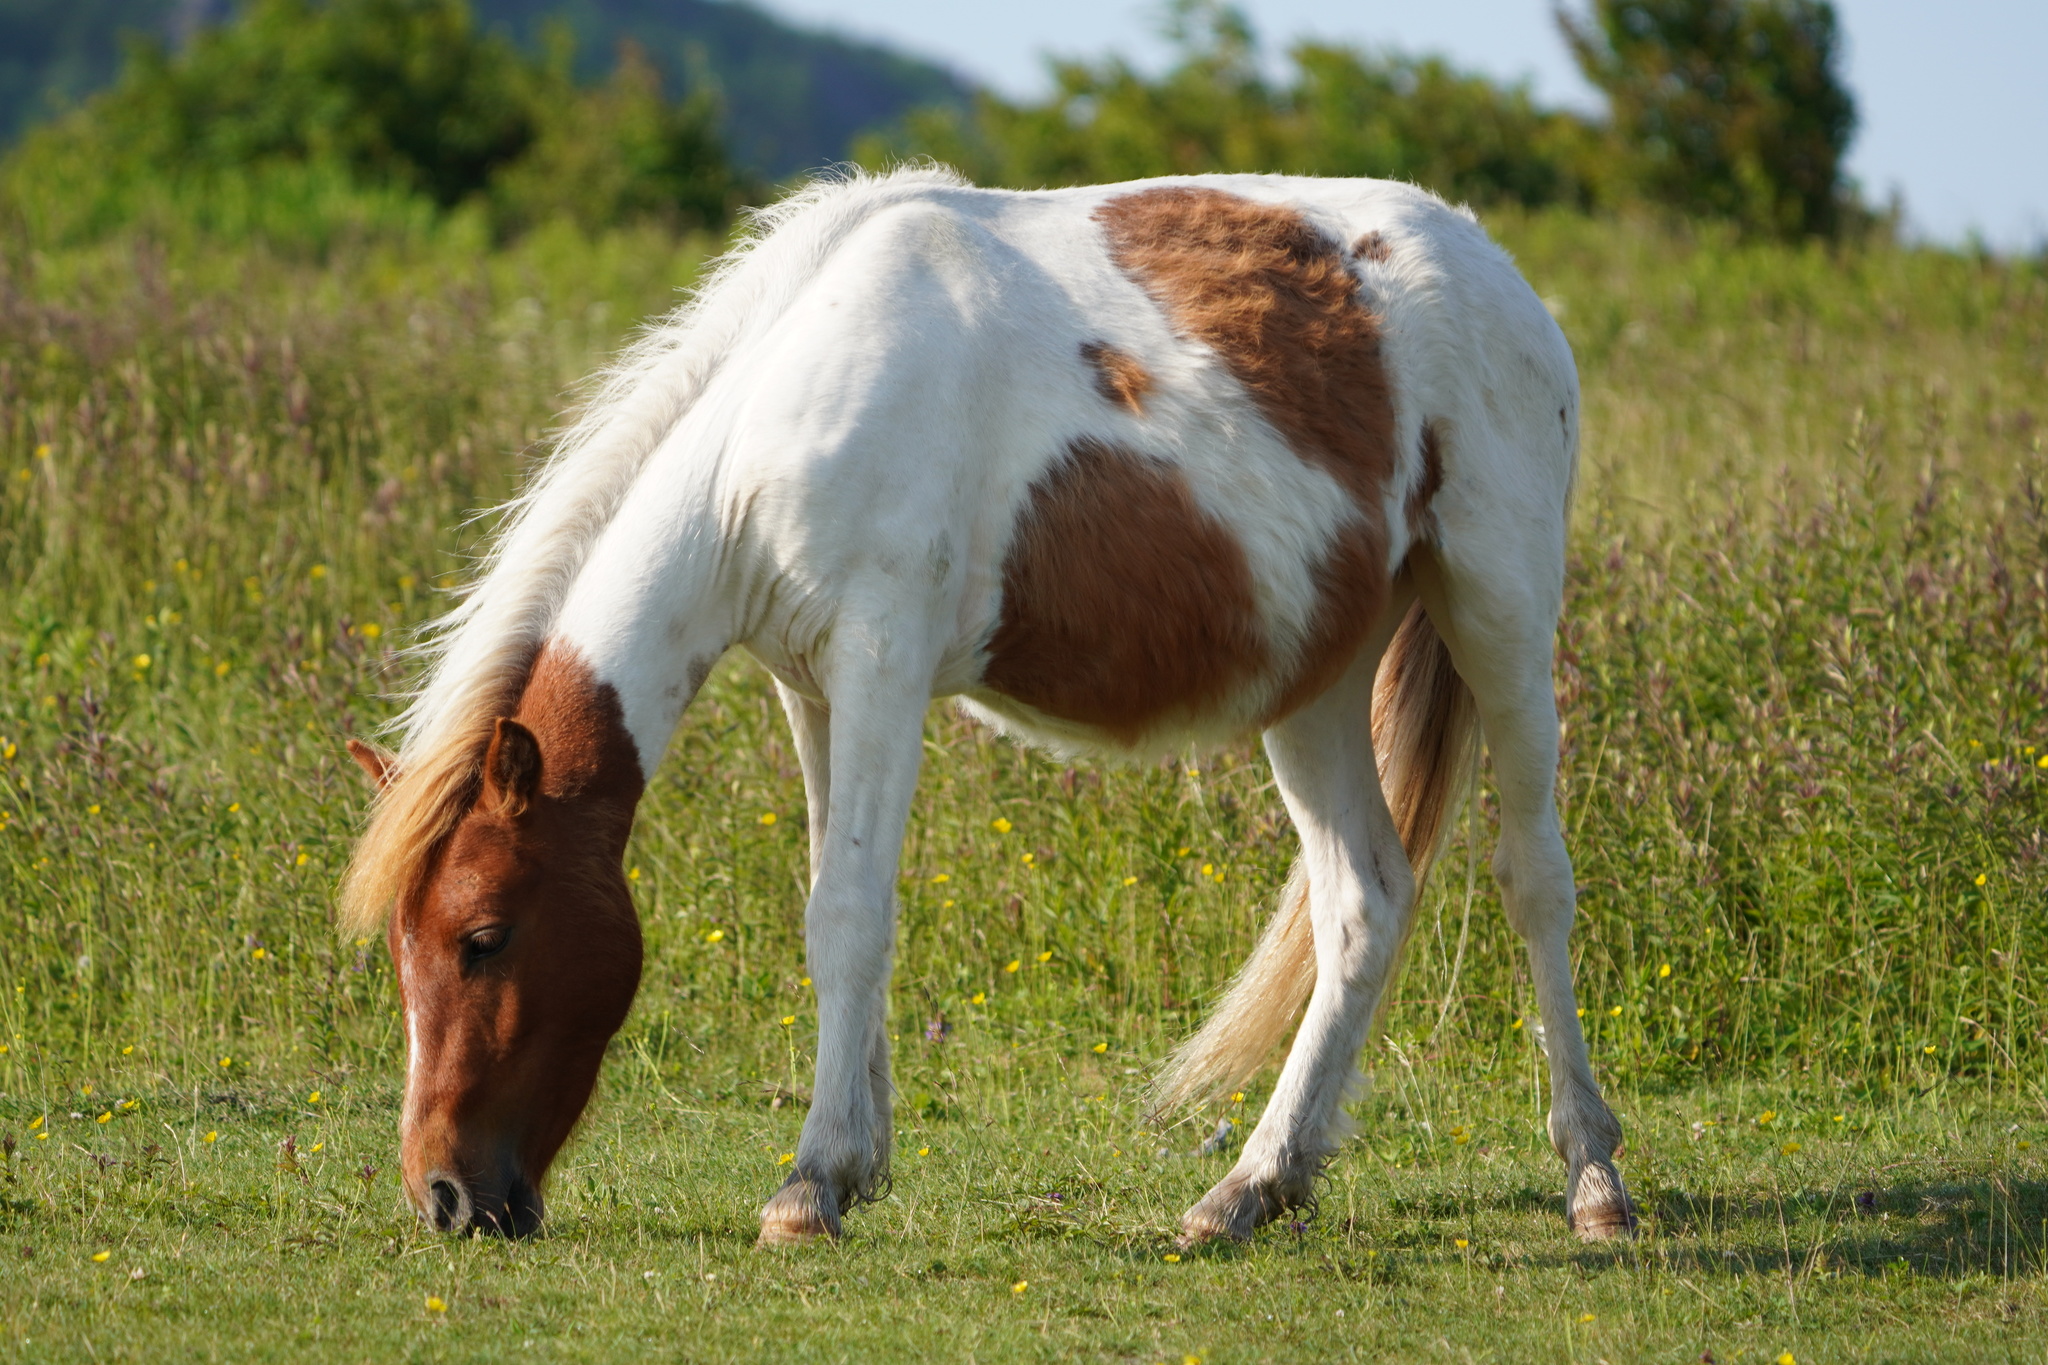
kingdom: Animalia
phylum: Chordata
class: Mammalia
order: Perissodactyla
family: Equidae
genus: Equus
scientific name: Equus caballus
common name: Horse
